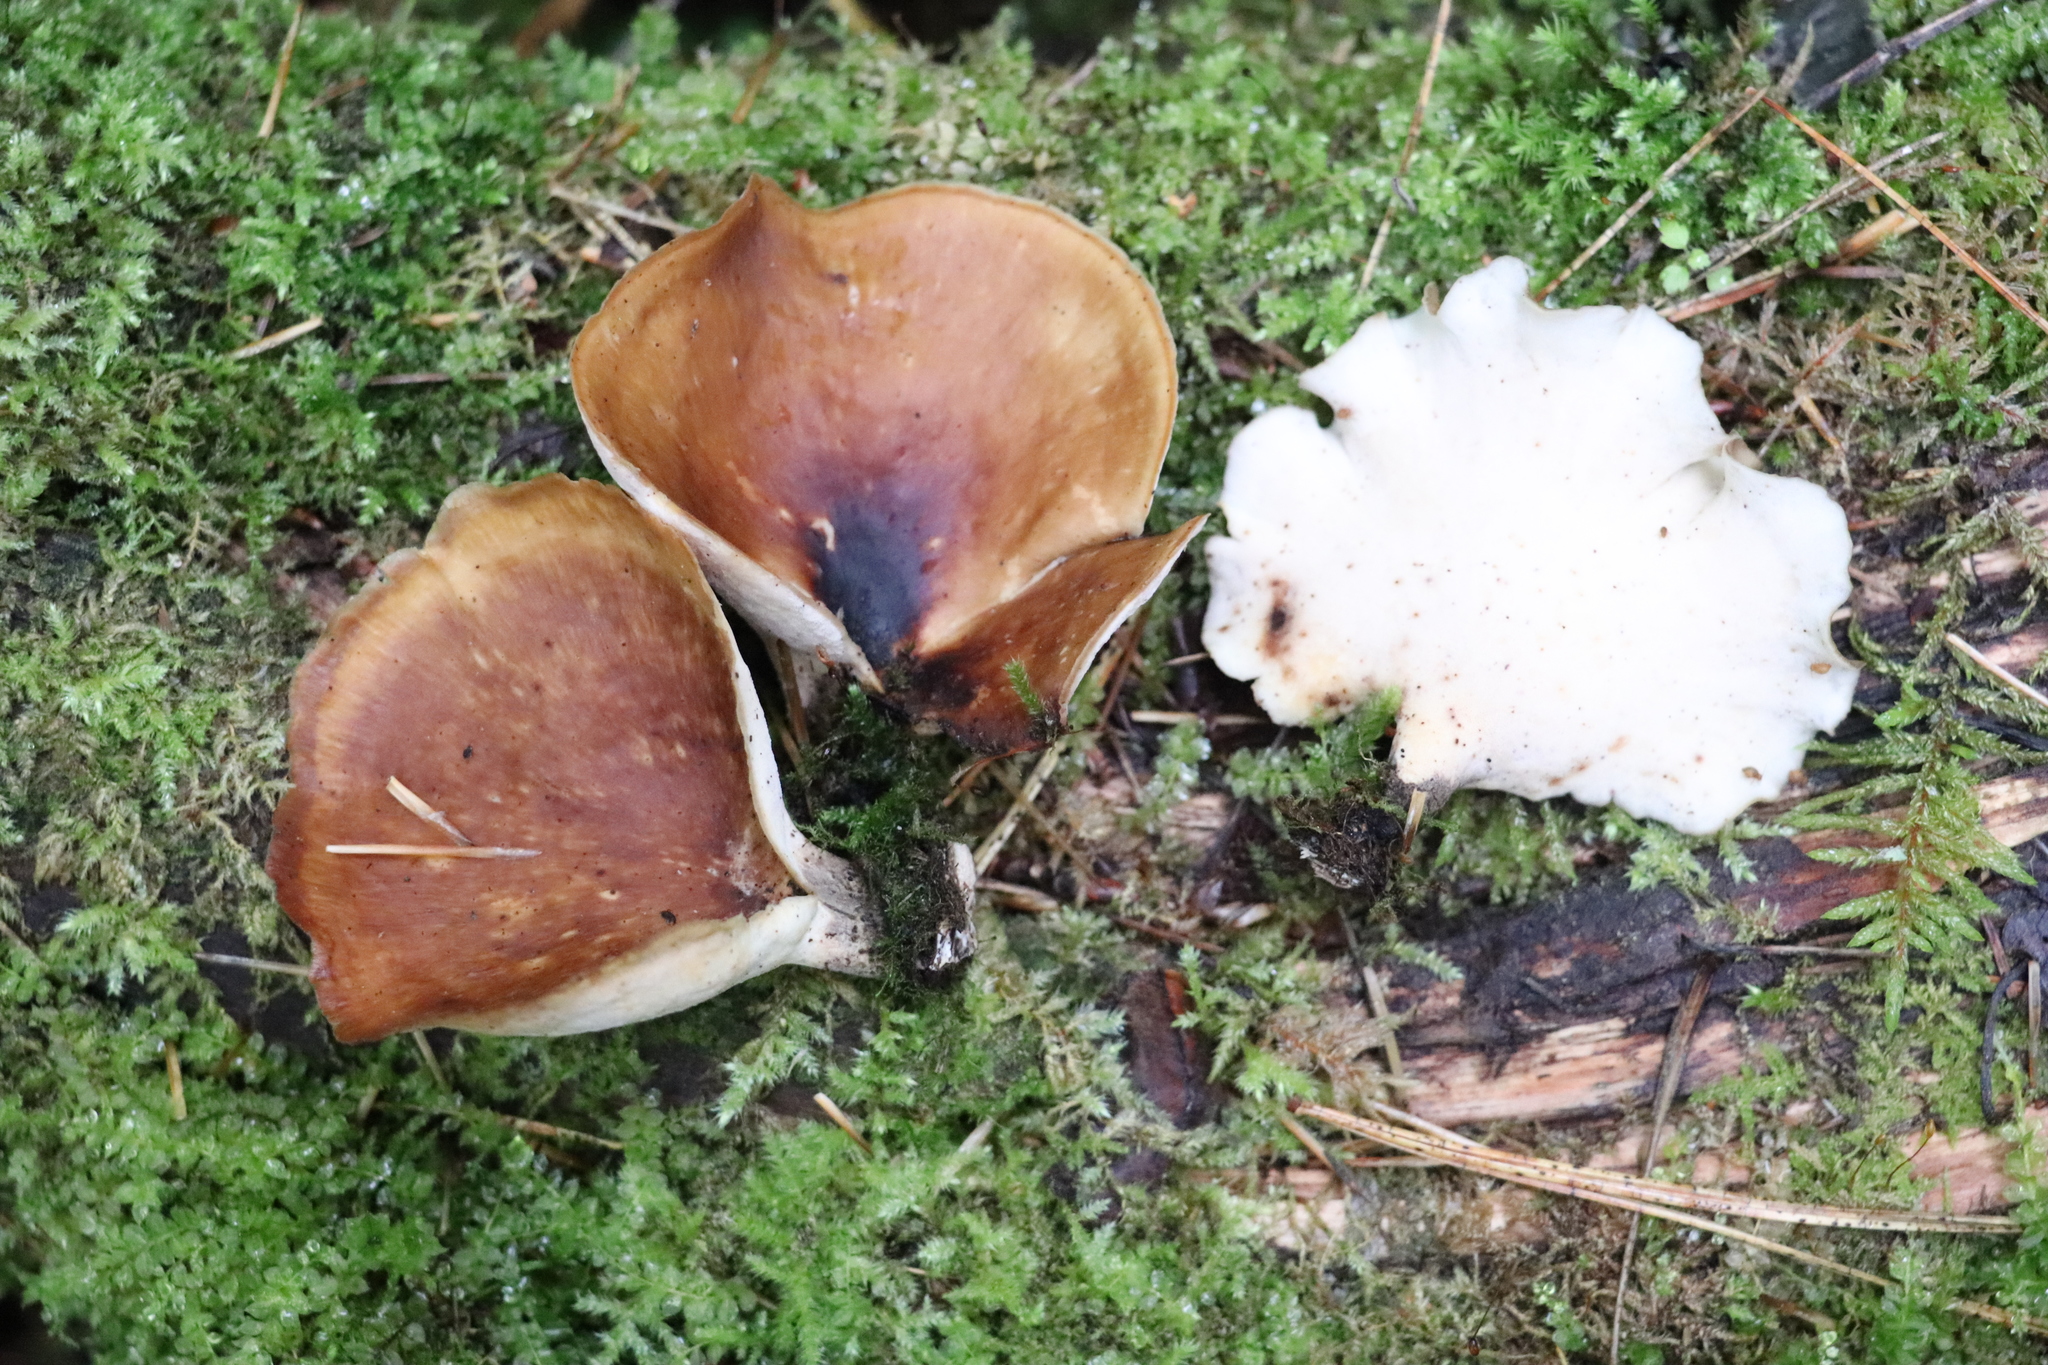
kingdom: Fungi
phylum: Basidiomycota
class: Agaricomycetes
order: Polyporales
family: Polyporaceae
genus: Picipes
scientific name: Picipes badius
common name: Bay polypore
